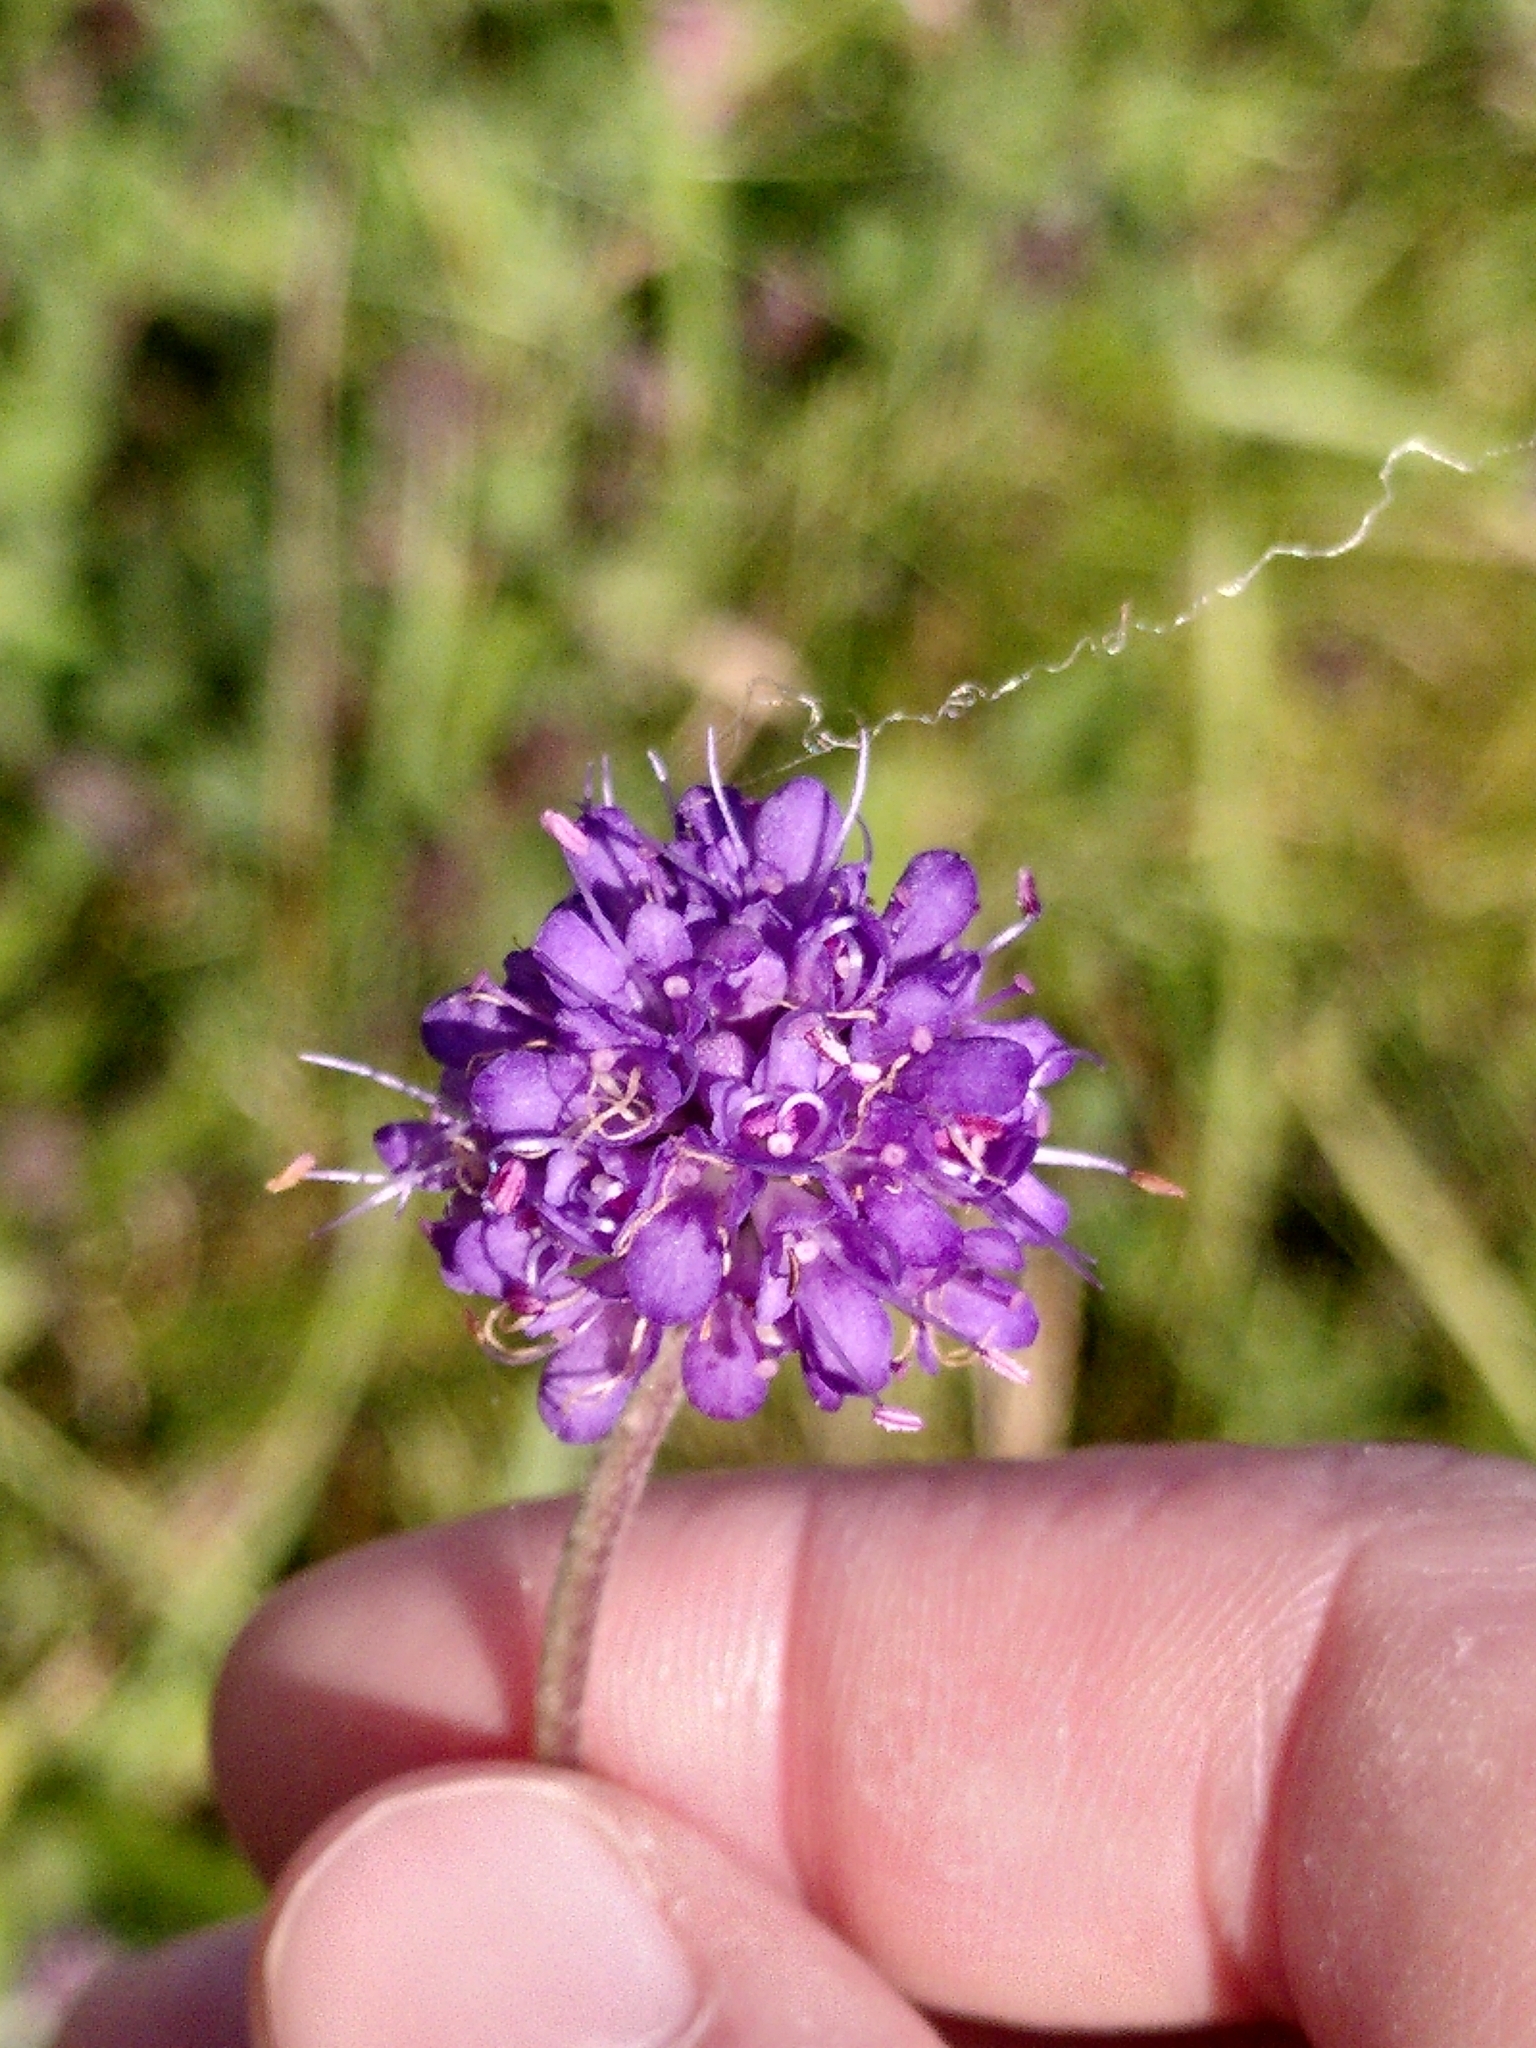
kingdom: Plantae
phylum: Tracheophyta
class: Magnoliopsida
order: Dipsacales
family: Caprifoliaceae
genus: Succisa
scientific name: Succisa pratensis
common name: Devil's-bit
